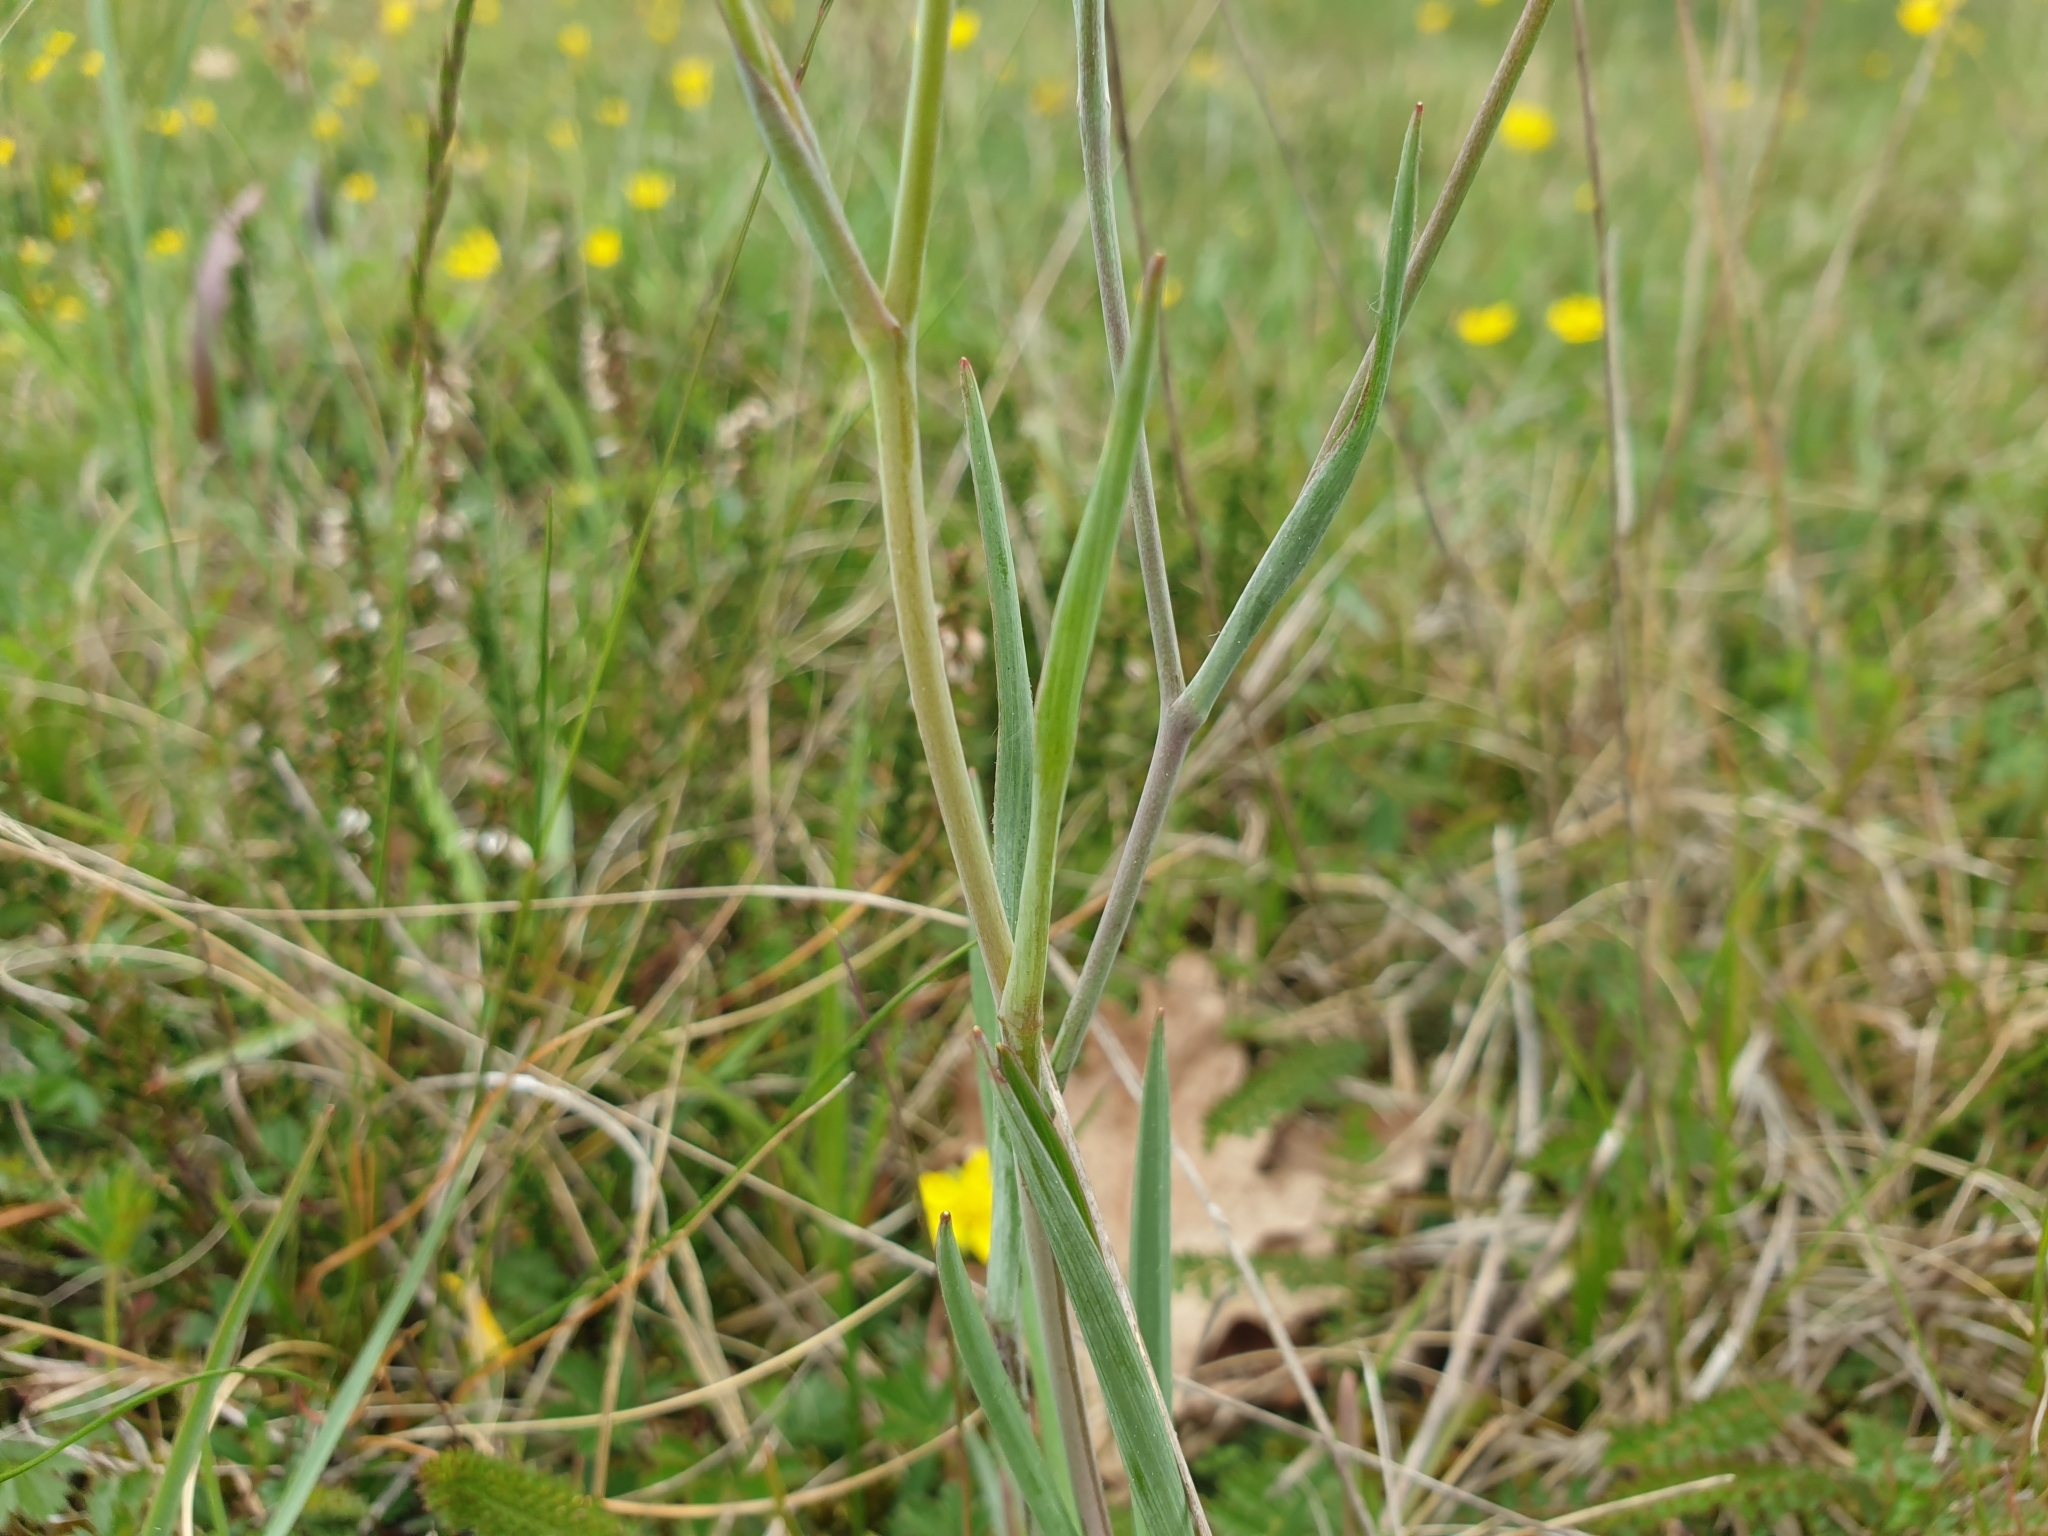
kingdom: Plantae
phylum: Tracheophyta
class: Magnoliopsida
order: Ranunculales
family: Ranunculaceae
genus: Ranunculus
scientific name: Ranunculus gramineus
